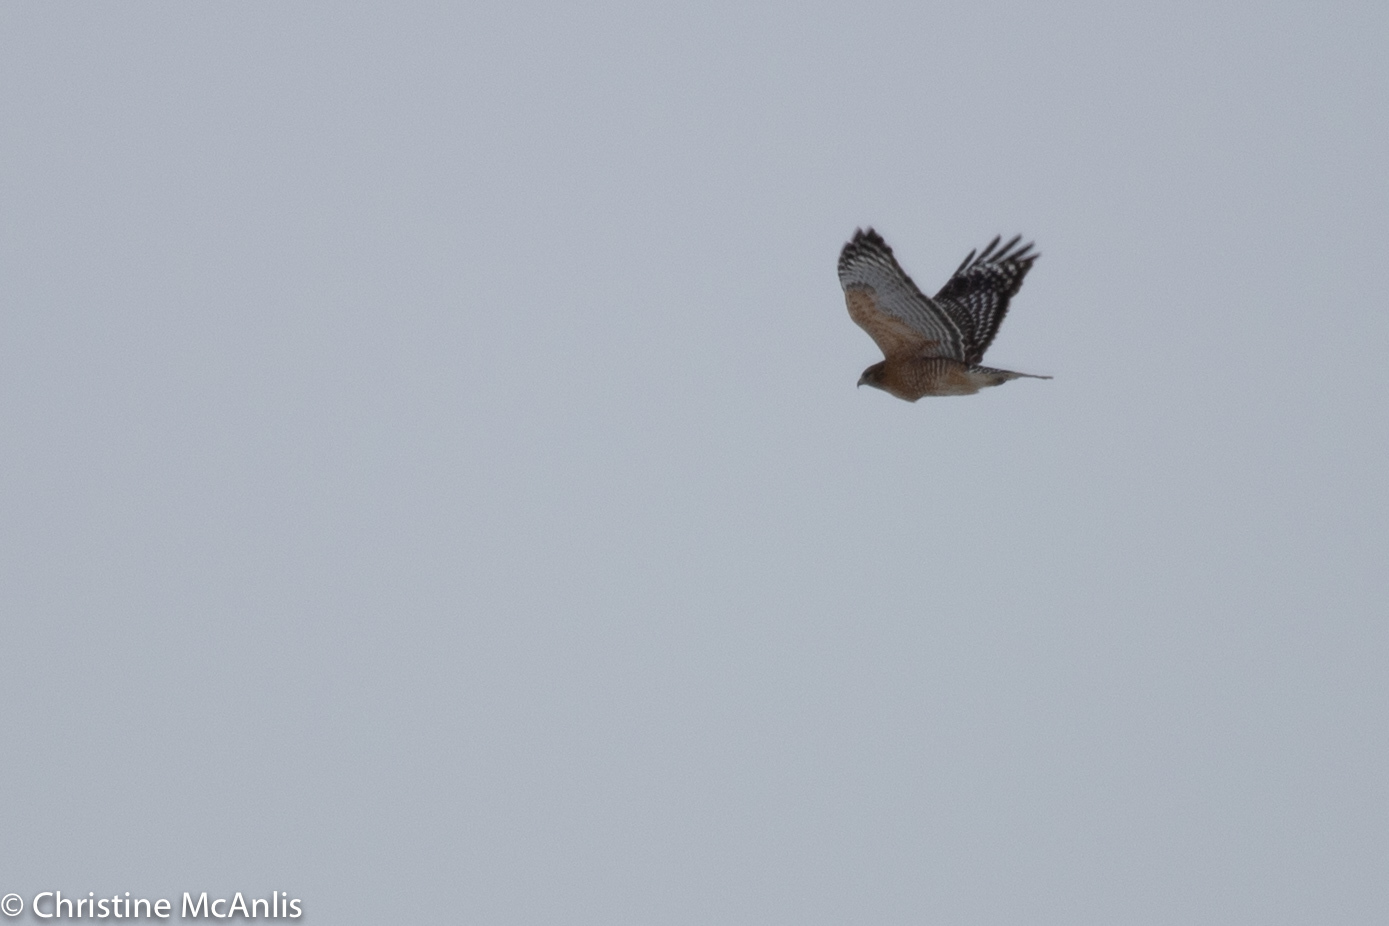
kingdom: Animalia
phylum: Chordata
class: Aves
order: Accipitriformes
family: Accipitridae
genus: Buteo
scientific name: Buteo lineatus
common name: Red-shouldered hawk
